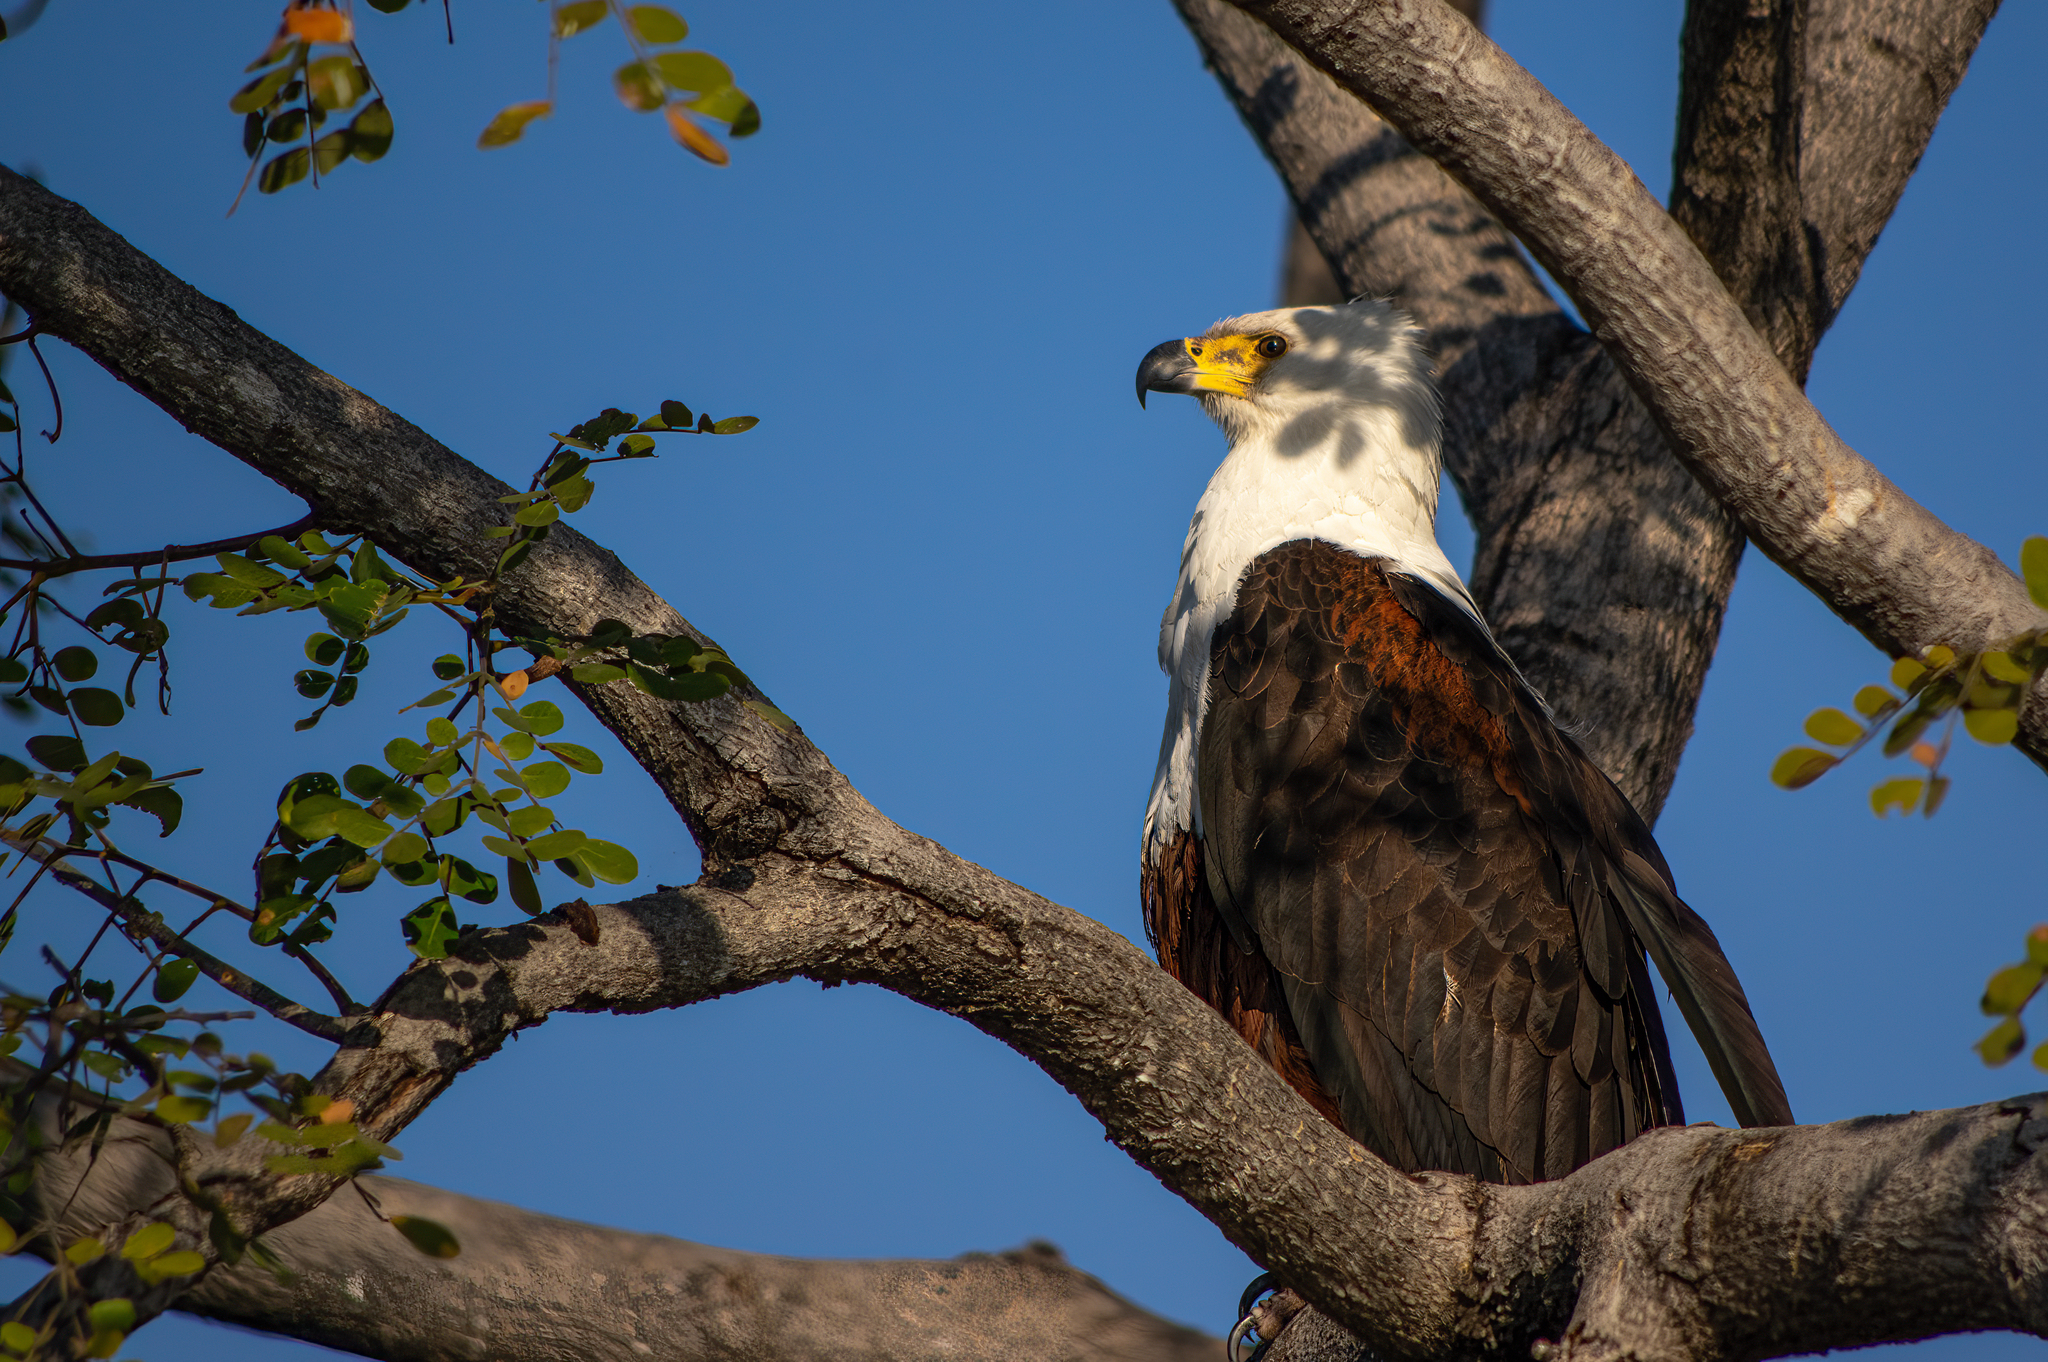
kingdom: Animalia
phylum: Chordata
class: Aves
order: Accipitriformes
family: Accipitridae
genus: Haliaeetus
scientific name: Haliaeetus vocifer
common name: African fish eagle
